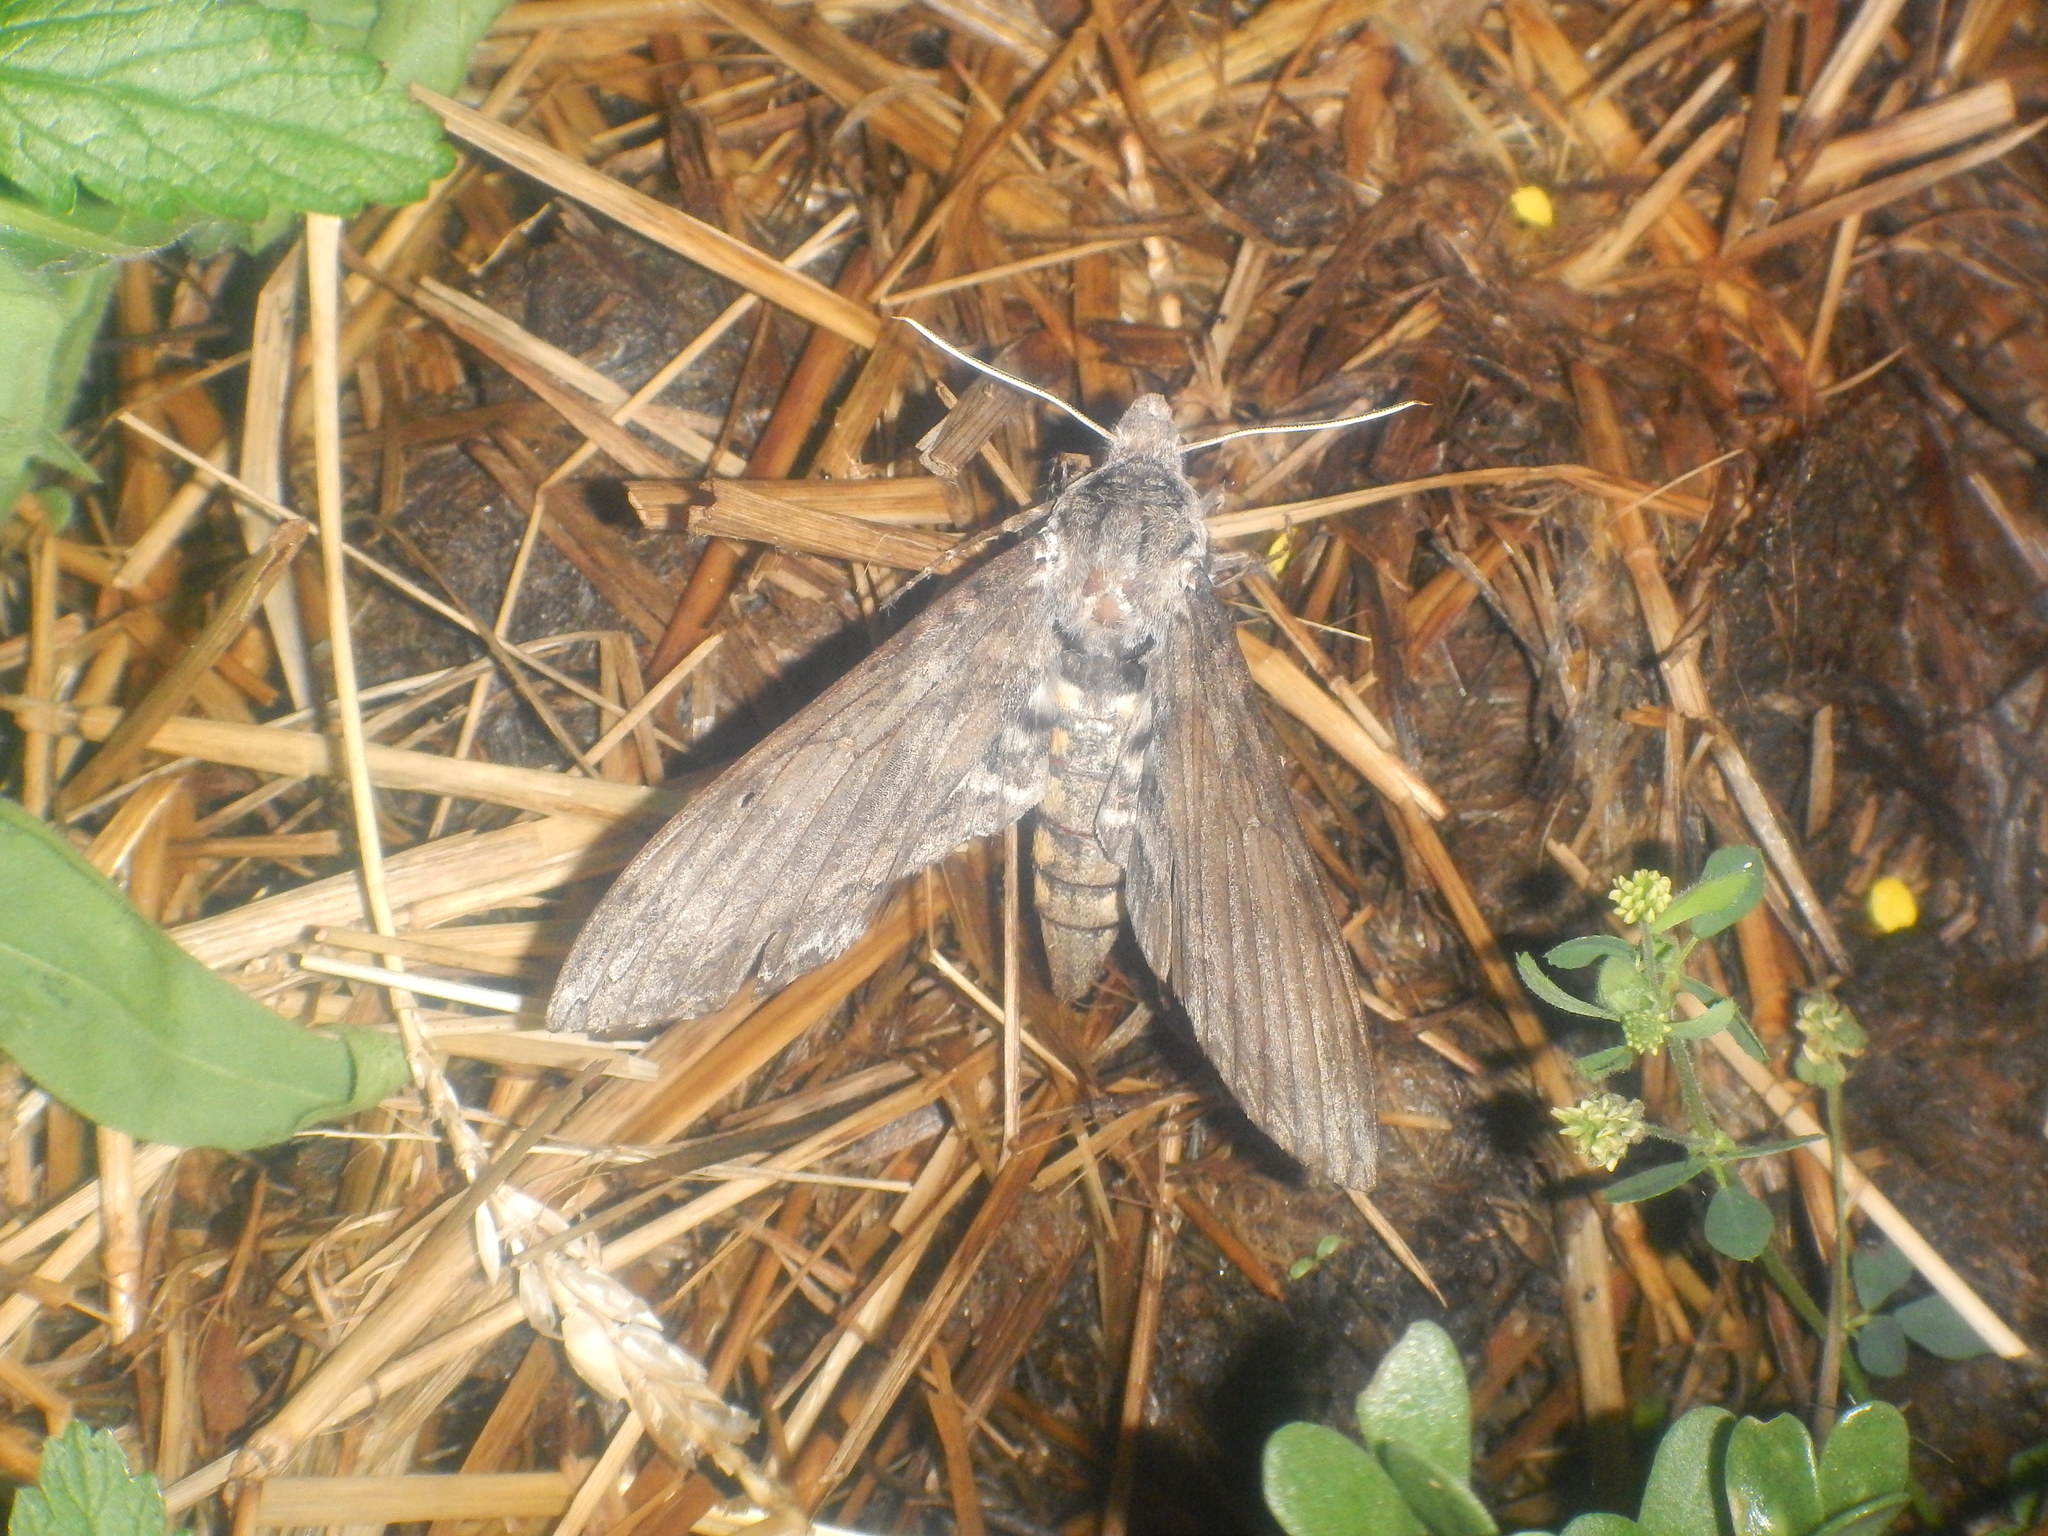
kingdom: Animalia
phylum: Arthropoda
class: Insecta
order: Lepidoptera
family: Sphingidae
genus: Manduca
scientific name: Manduca sexta
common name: Carolina sphinx
